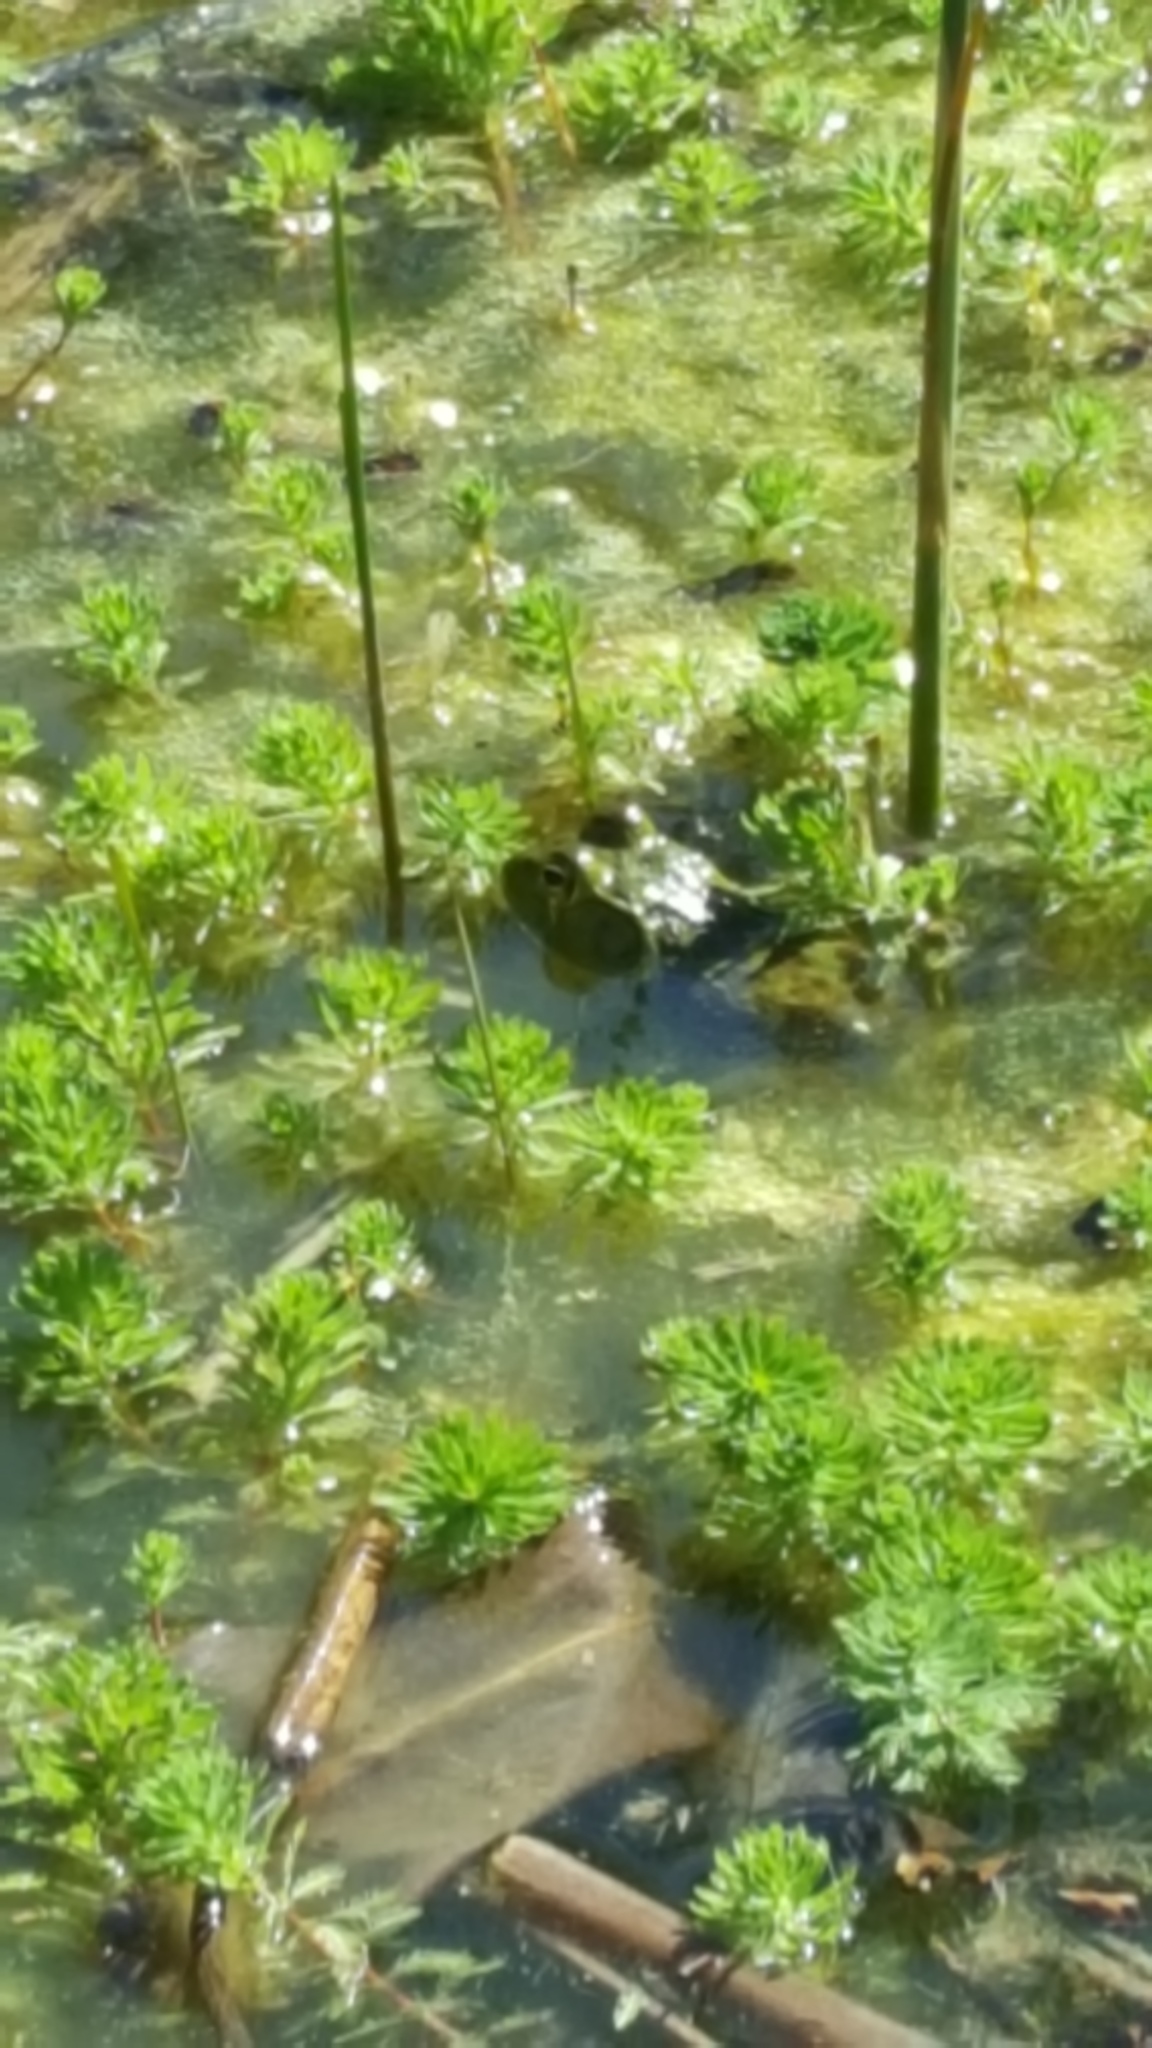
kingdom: Animalia
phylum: Chordata
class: Amphibia
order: Anura
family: Ranidae
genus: Lithobates
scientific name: Lithobates catesbeianus
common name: American bullfrog
